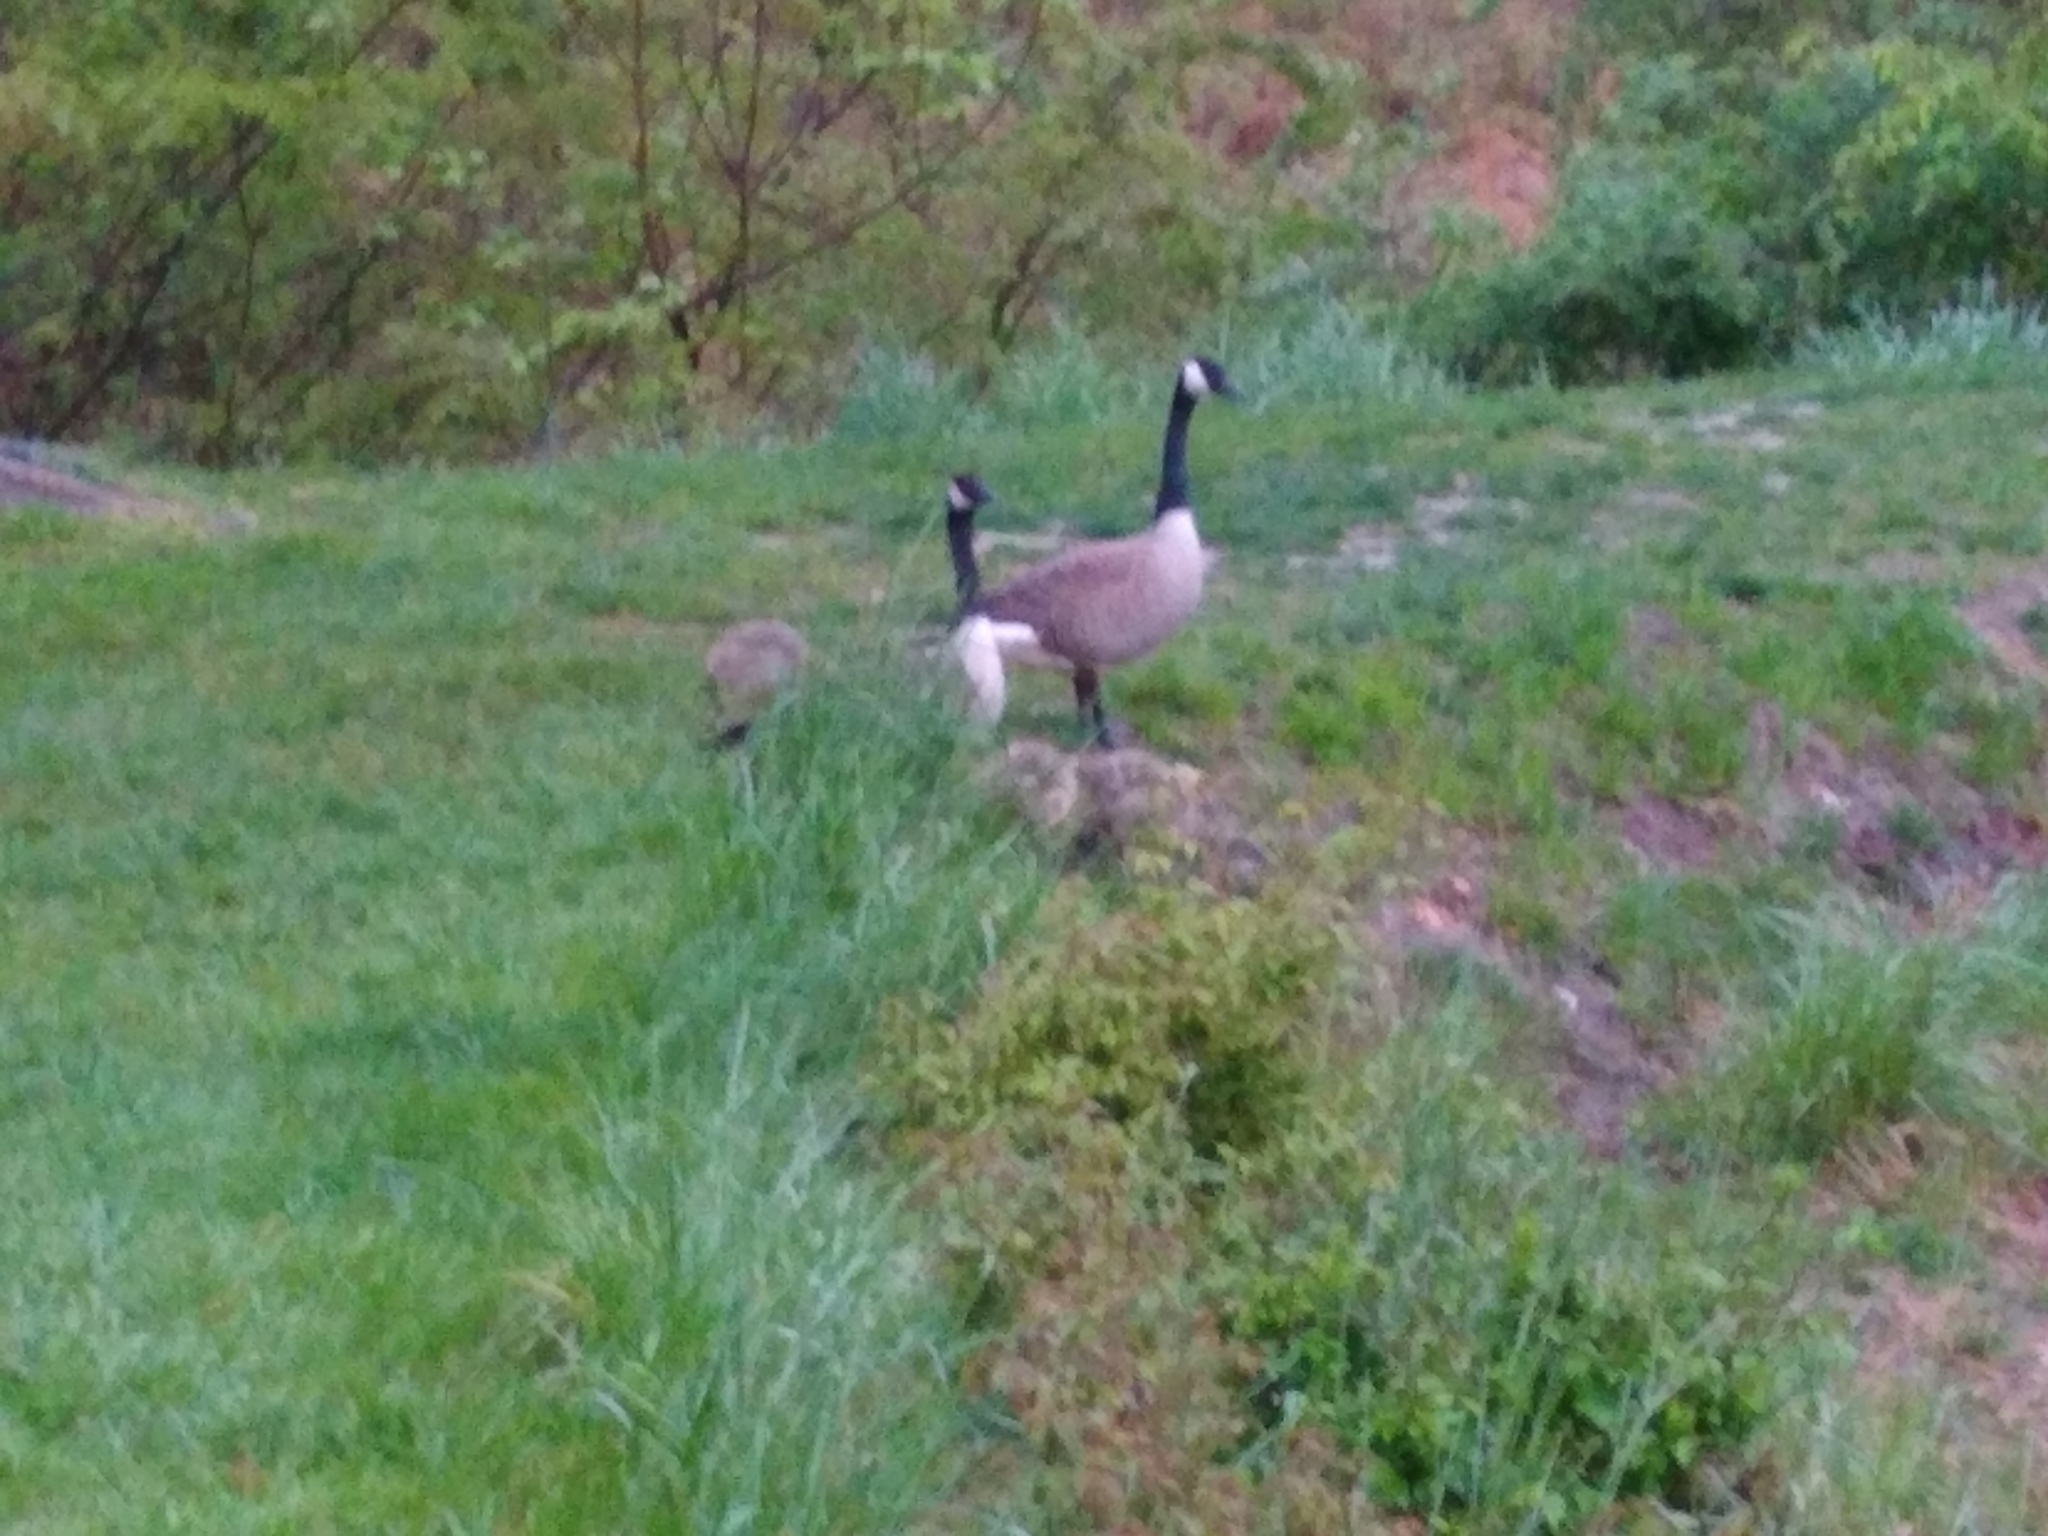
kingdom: Animalia
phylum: Chordata
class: Aves
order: Anseriformes
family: Anatidae
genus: Branta
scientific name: Branta canadensis
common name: Canada goose
